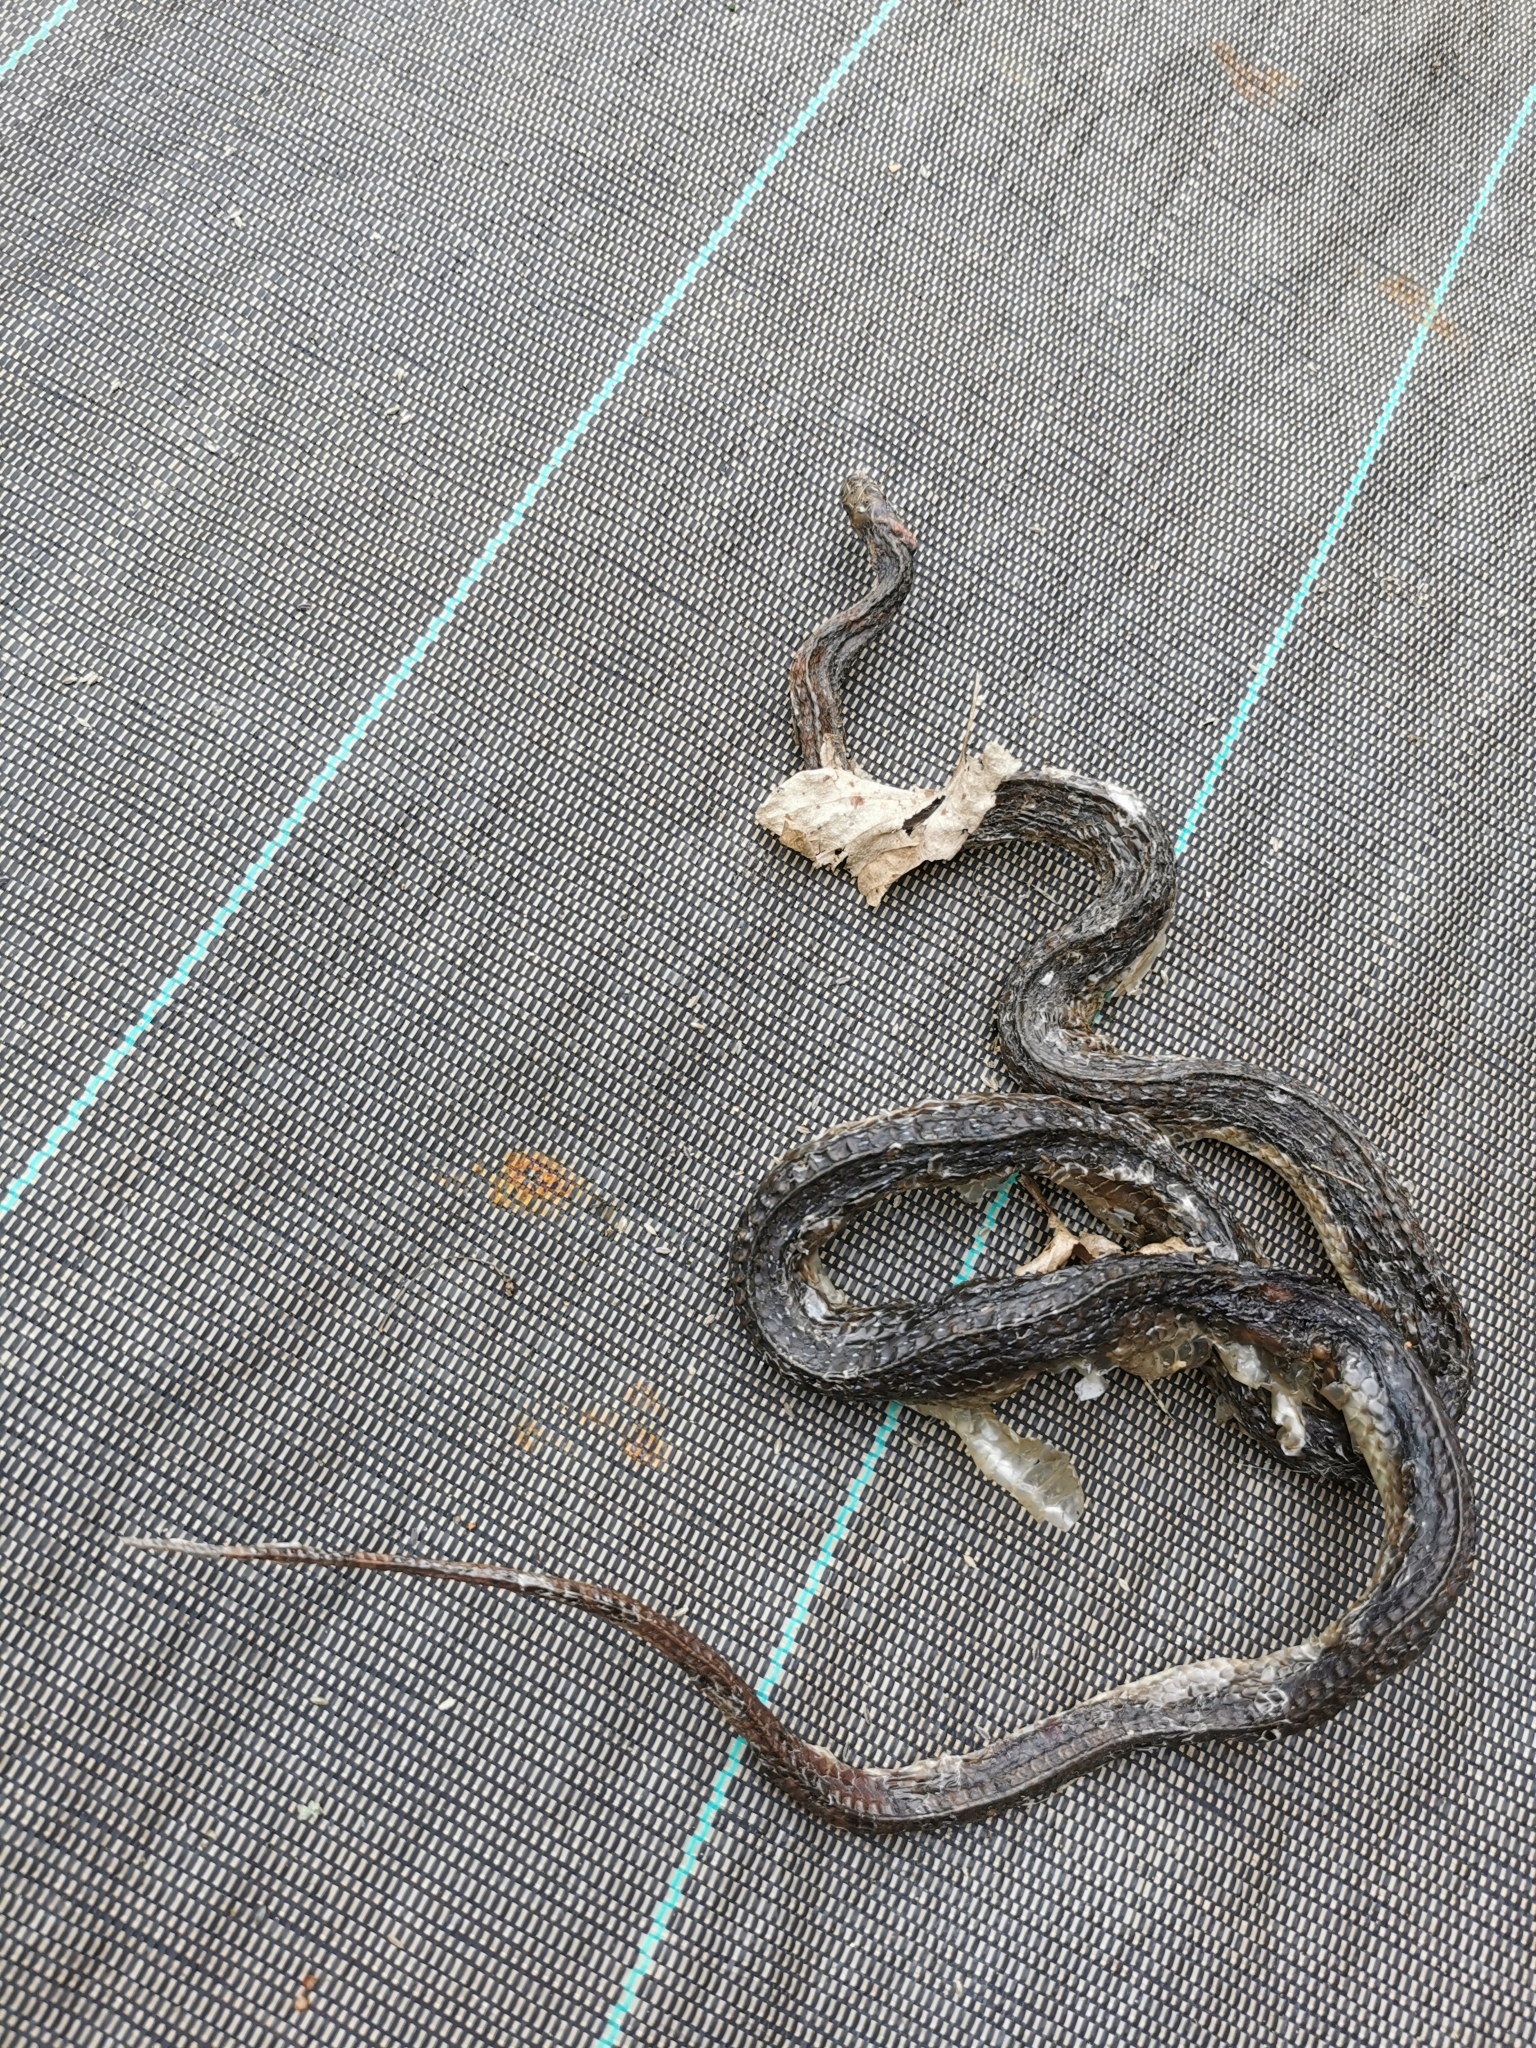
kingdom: Animalia
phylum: Chordata
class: Squamata
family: Colubridae
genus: Zamenis
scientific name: Zamenis longissimus
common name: Aesculapean snake
